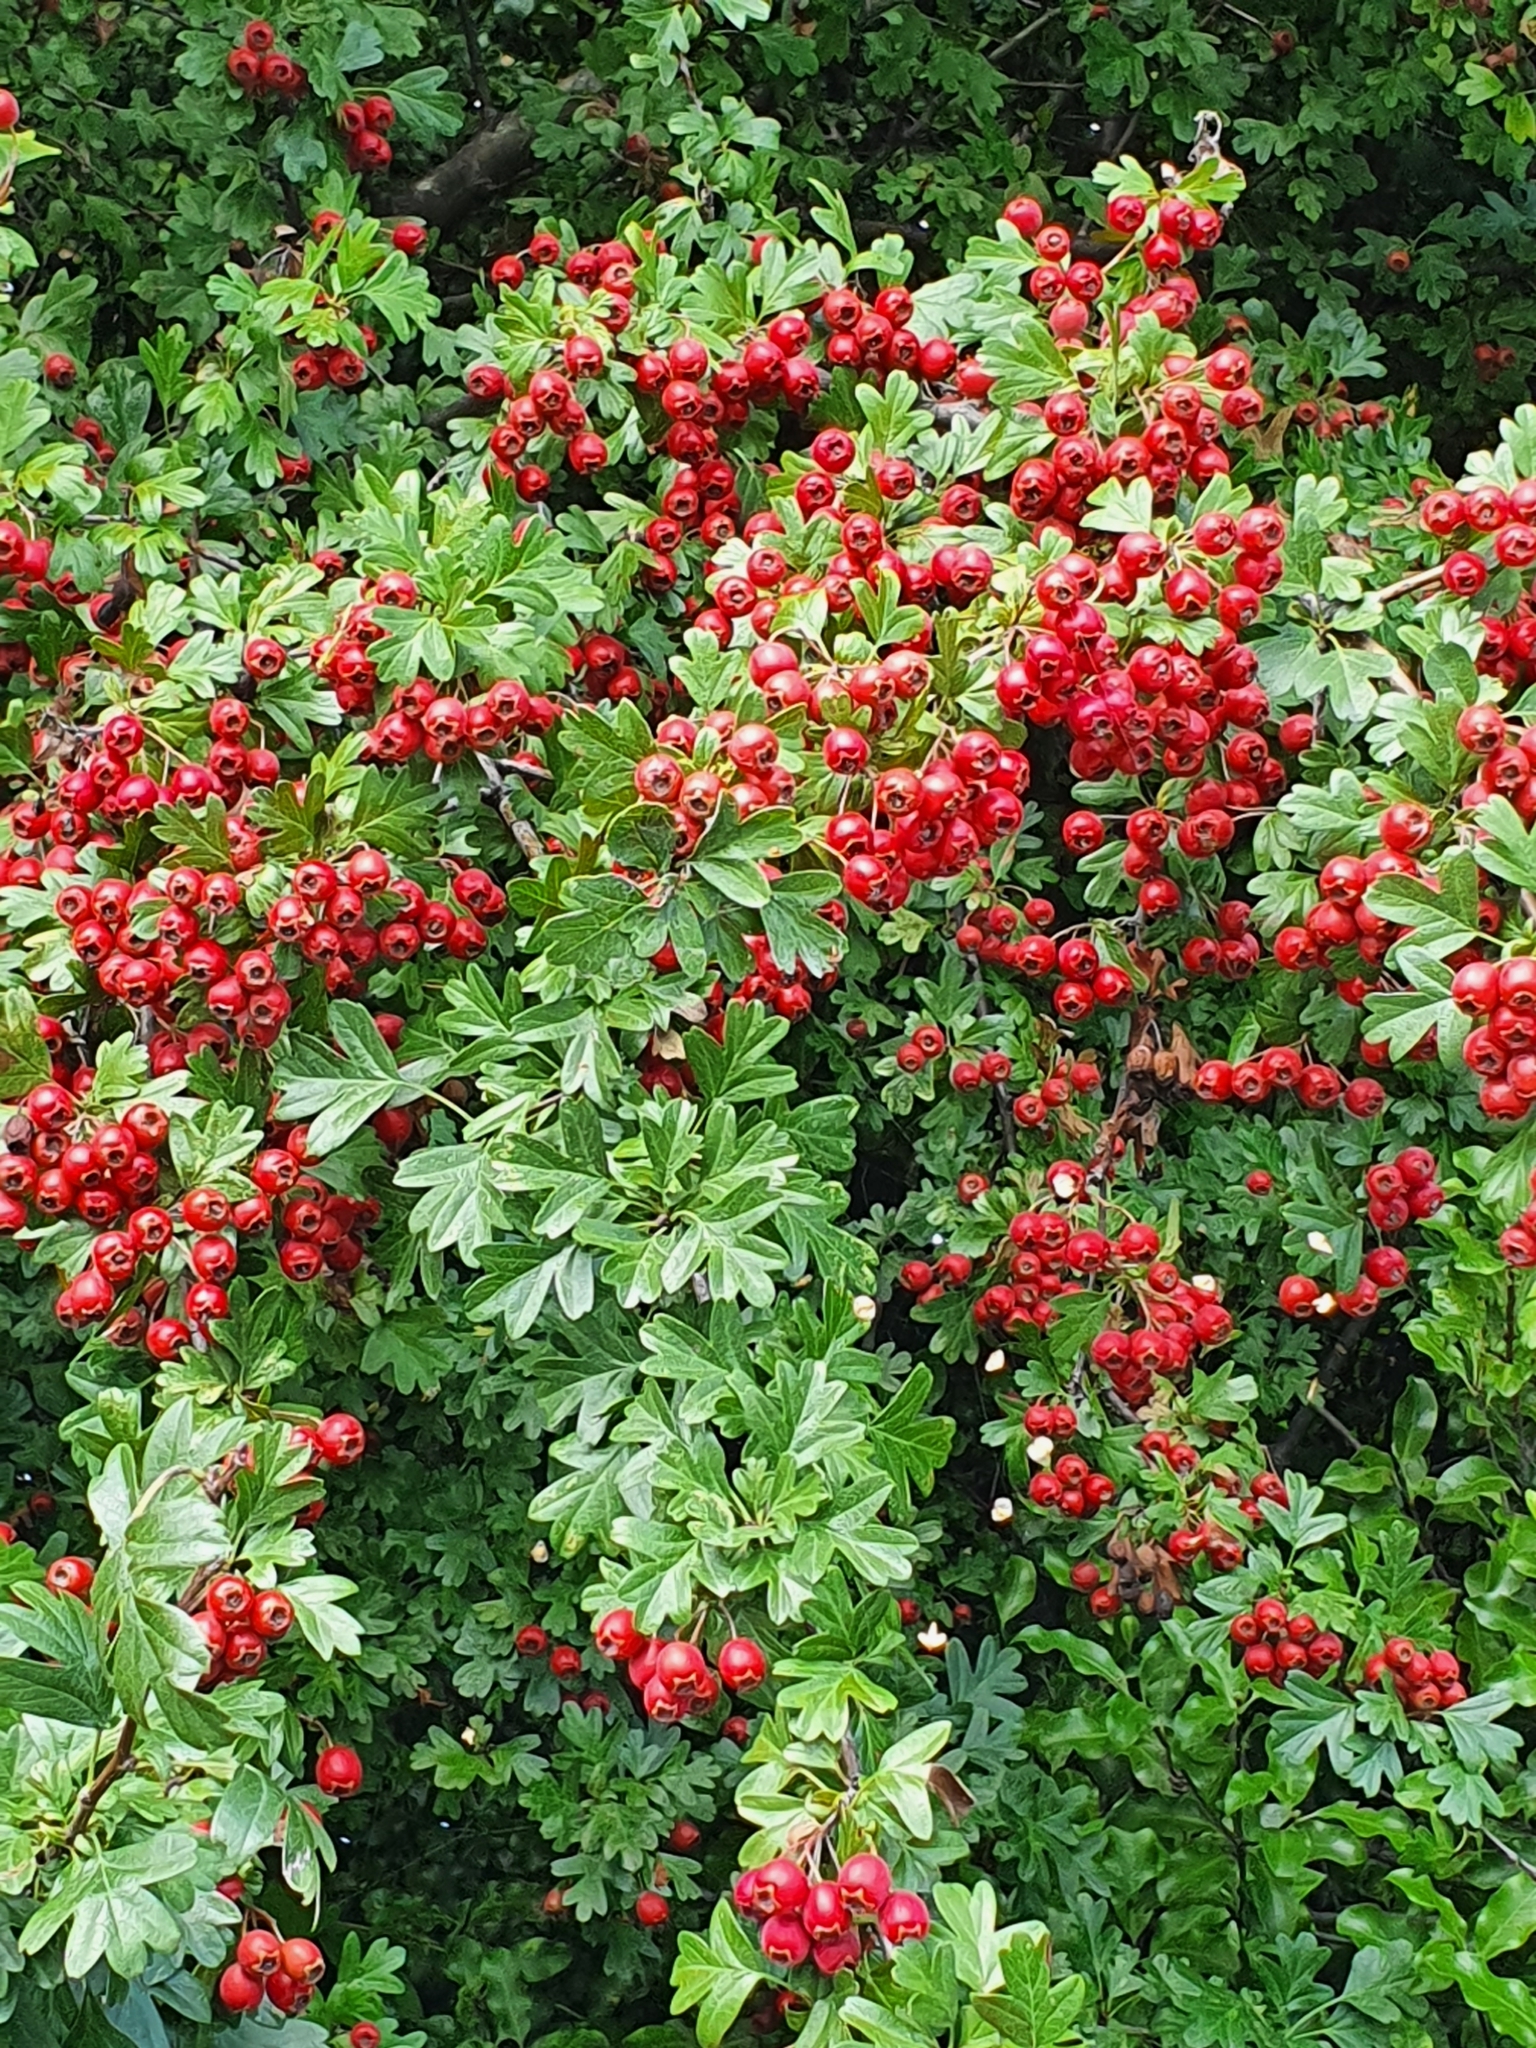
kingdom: Plantae
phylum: Tracheophyta
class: Magnoliopsida
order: Rosales
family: Rosaceae
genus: Crataegus
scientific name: Crataegus monogyna
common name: Hawthorn
